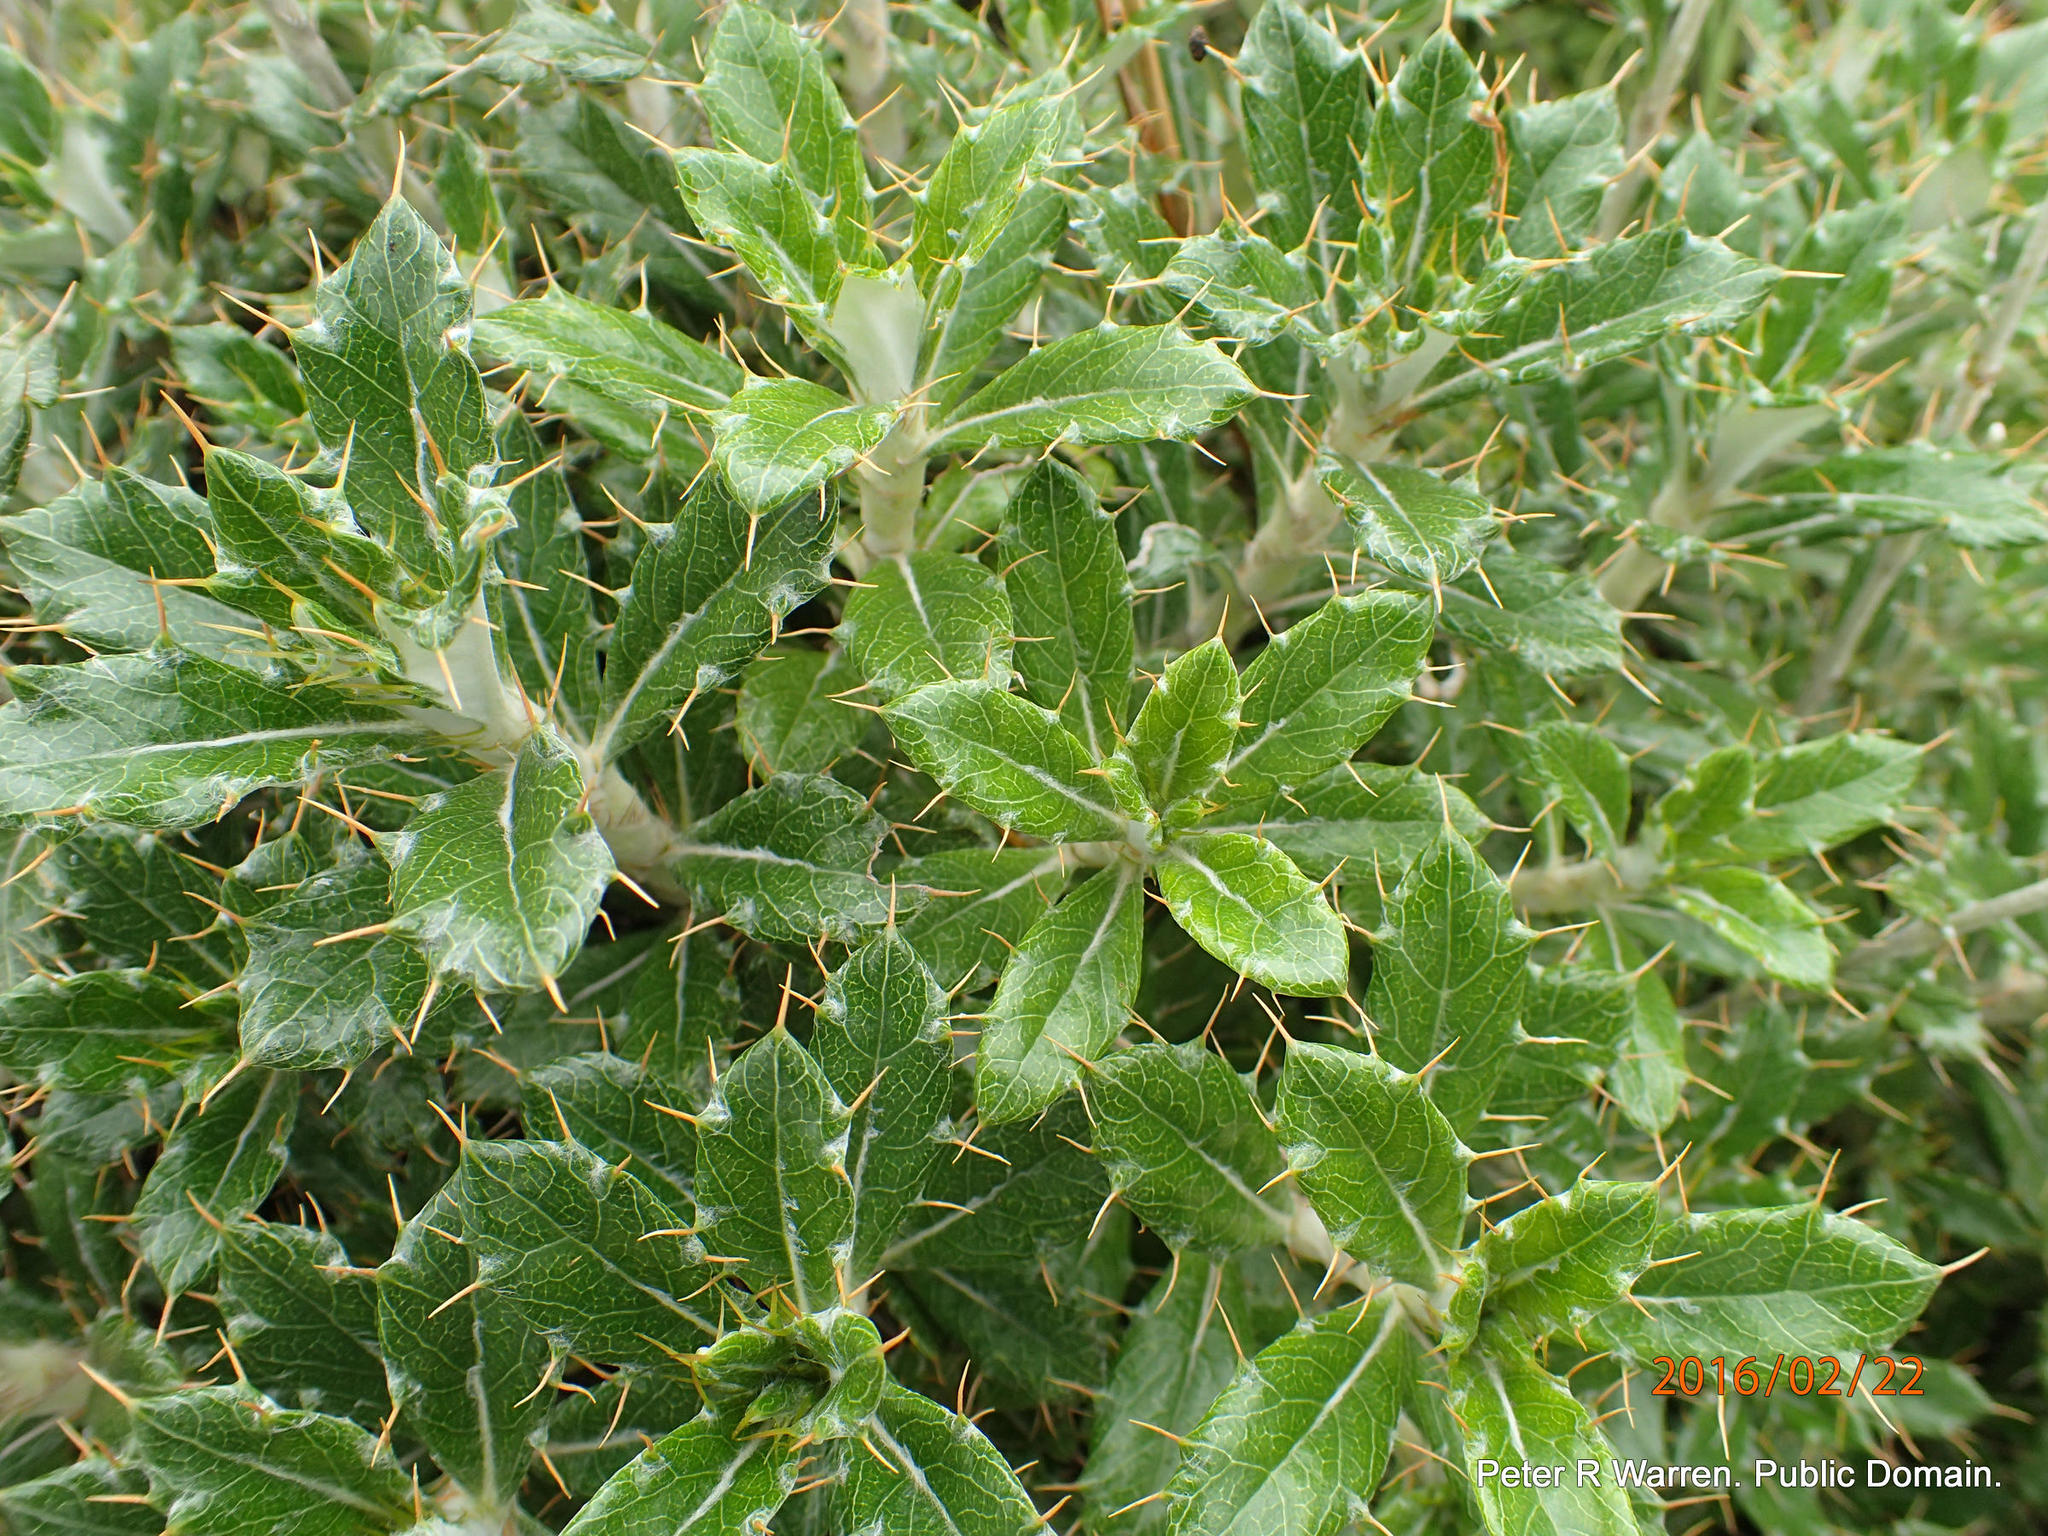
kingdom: Plantae
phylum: Tracheophyta
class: Magnoliopsida
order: Asterales
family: Asteraceae
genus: Berkheya
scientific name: Berkheya rosulata
